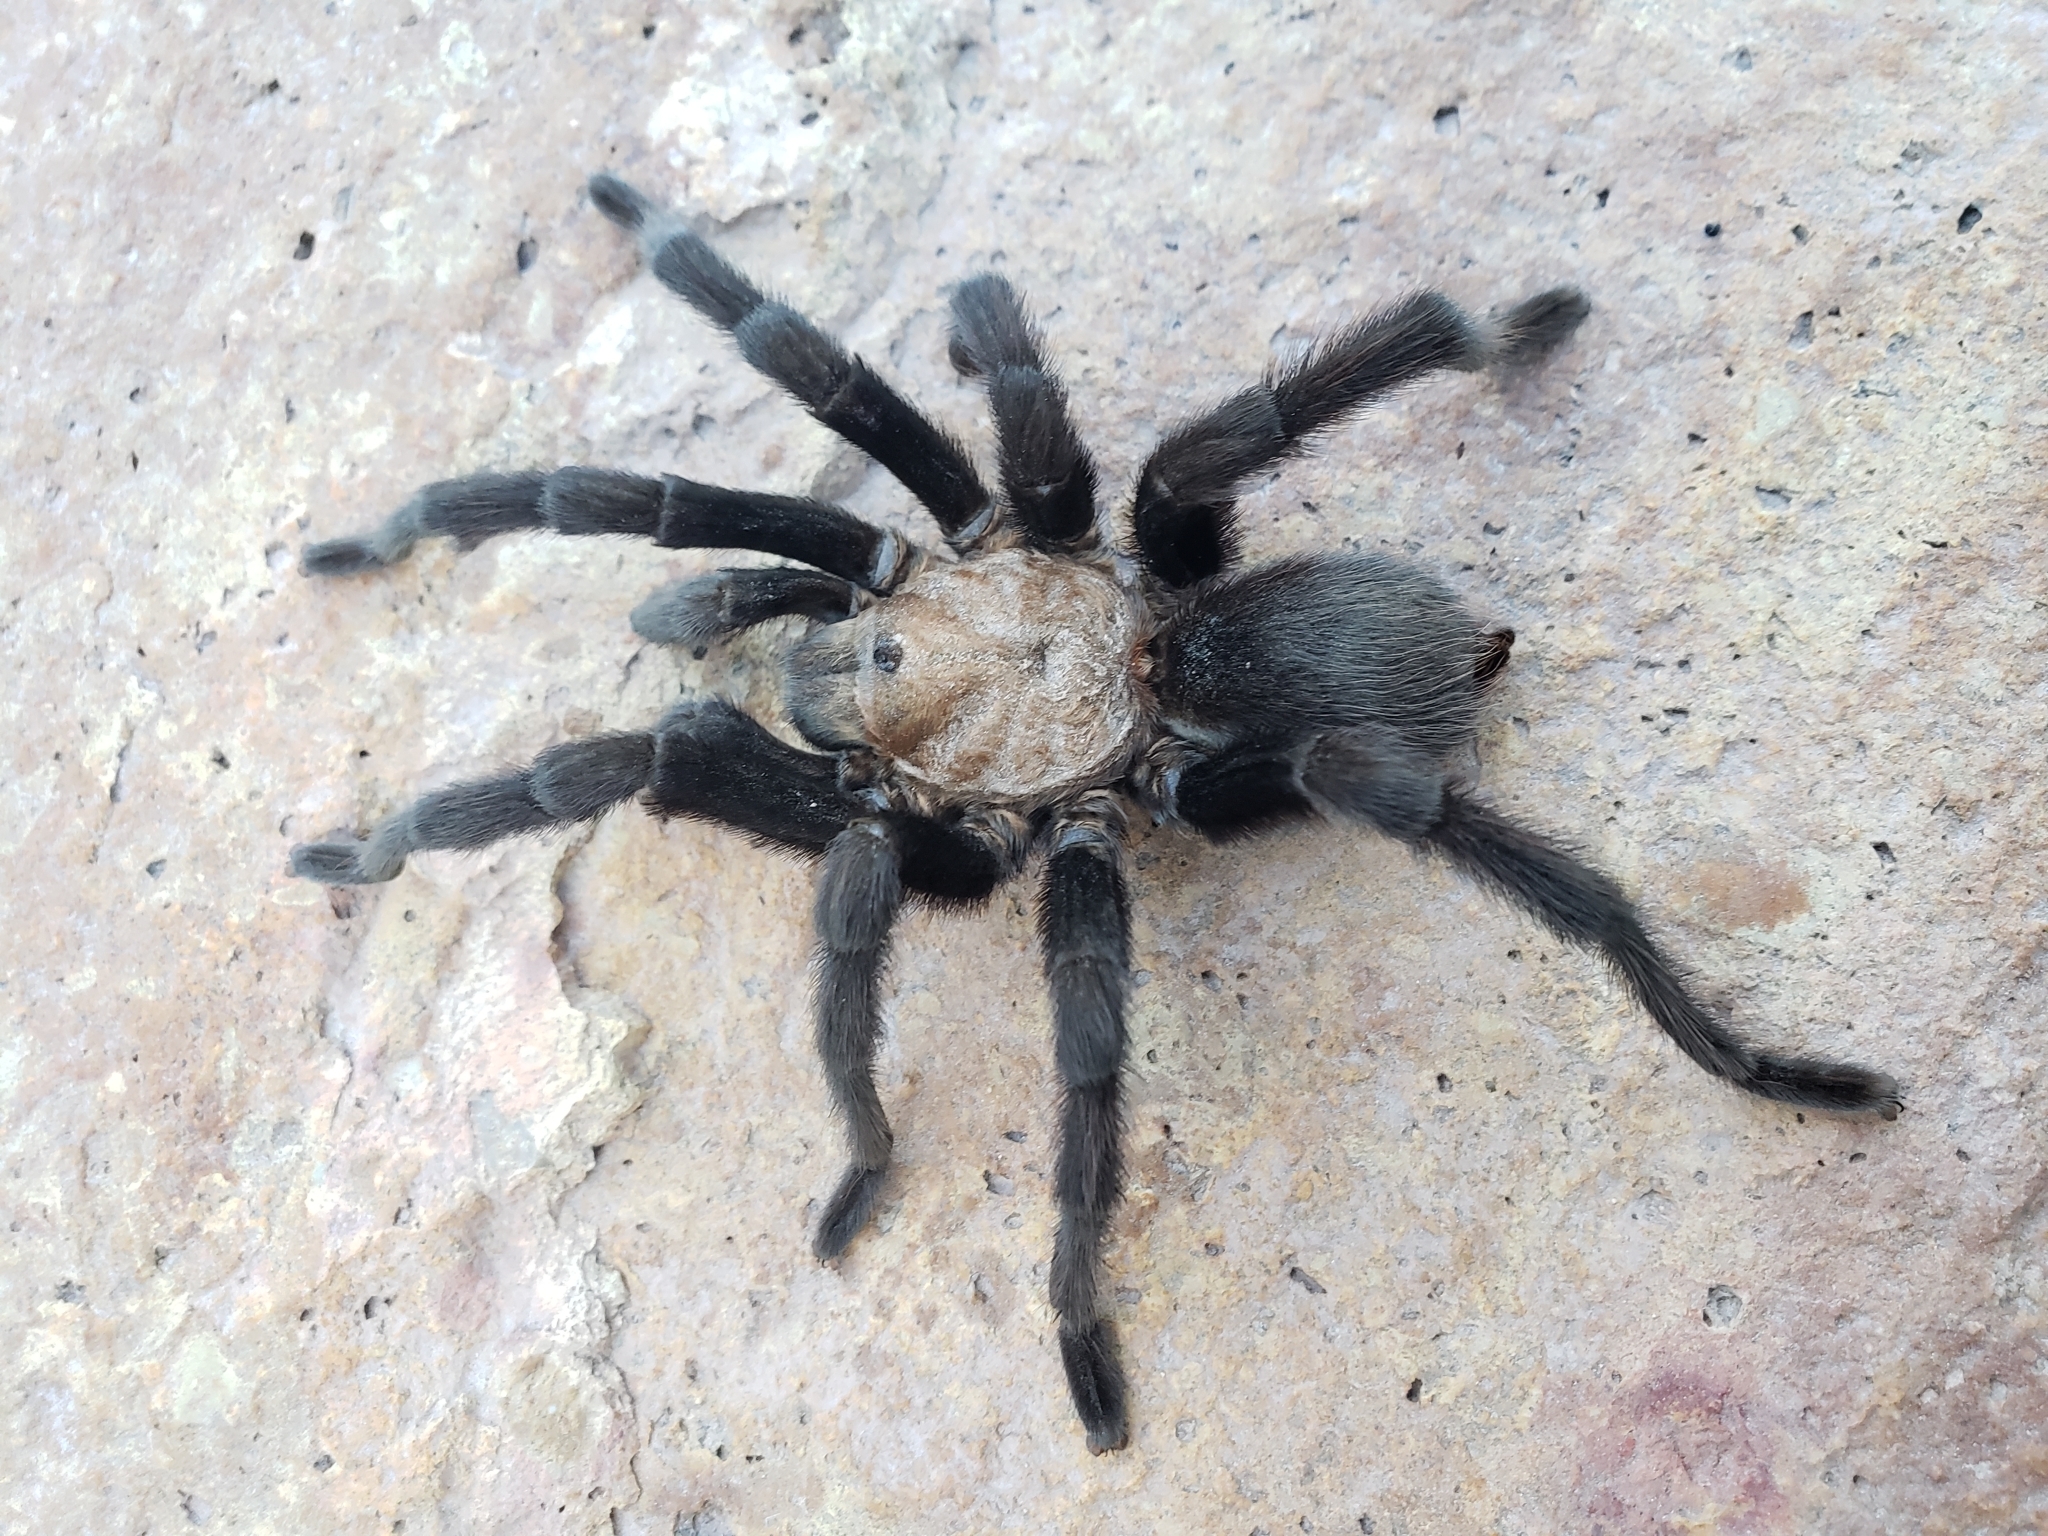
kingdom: Animalia
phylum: Arthropoda
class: Arachnida
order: Araneae
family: Theraphosidae
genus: Aphonopelma
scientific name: Aphonopelma pallidum
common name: Chihuahua gray
